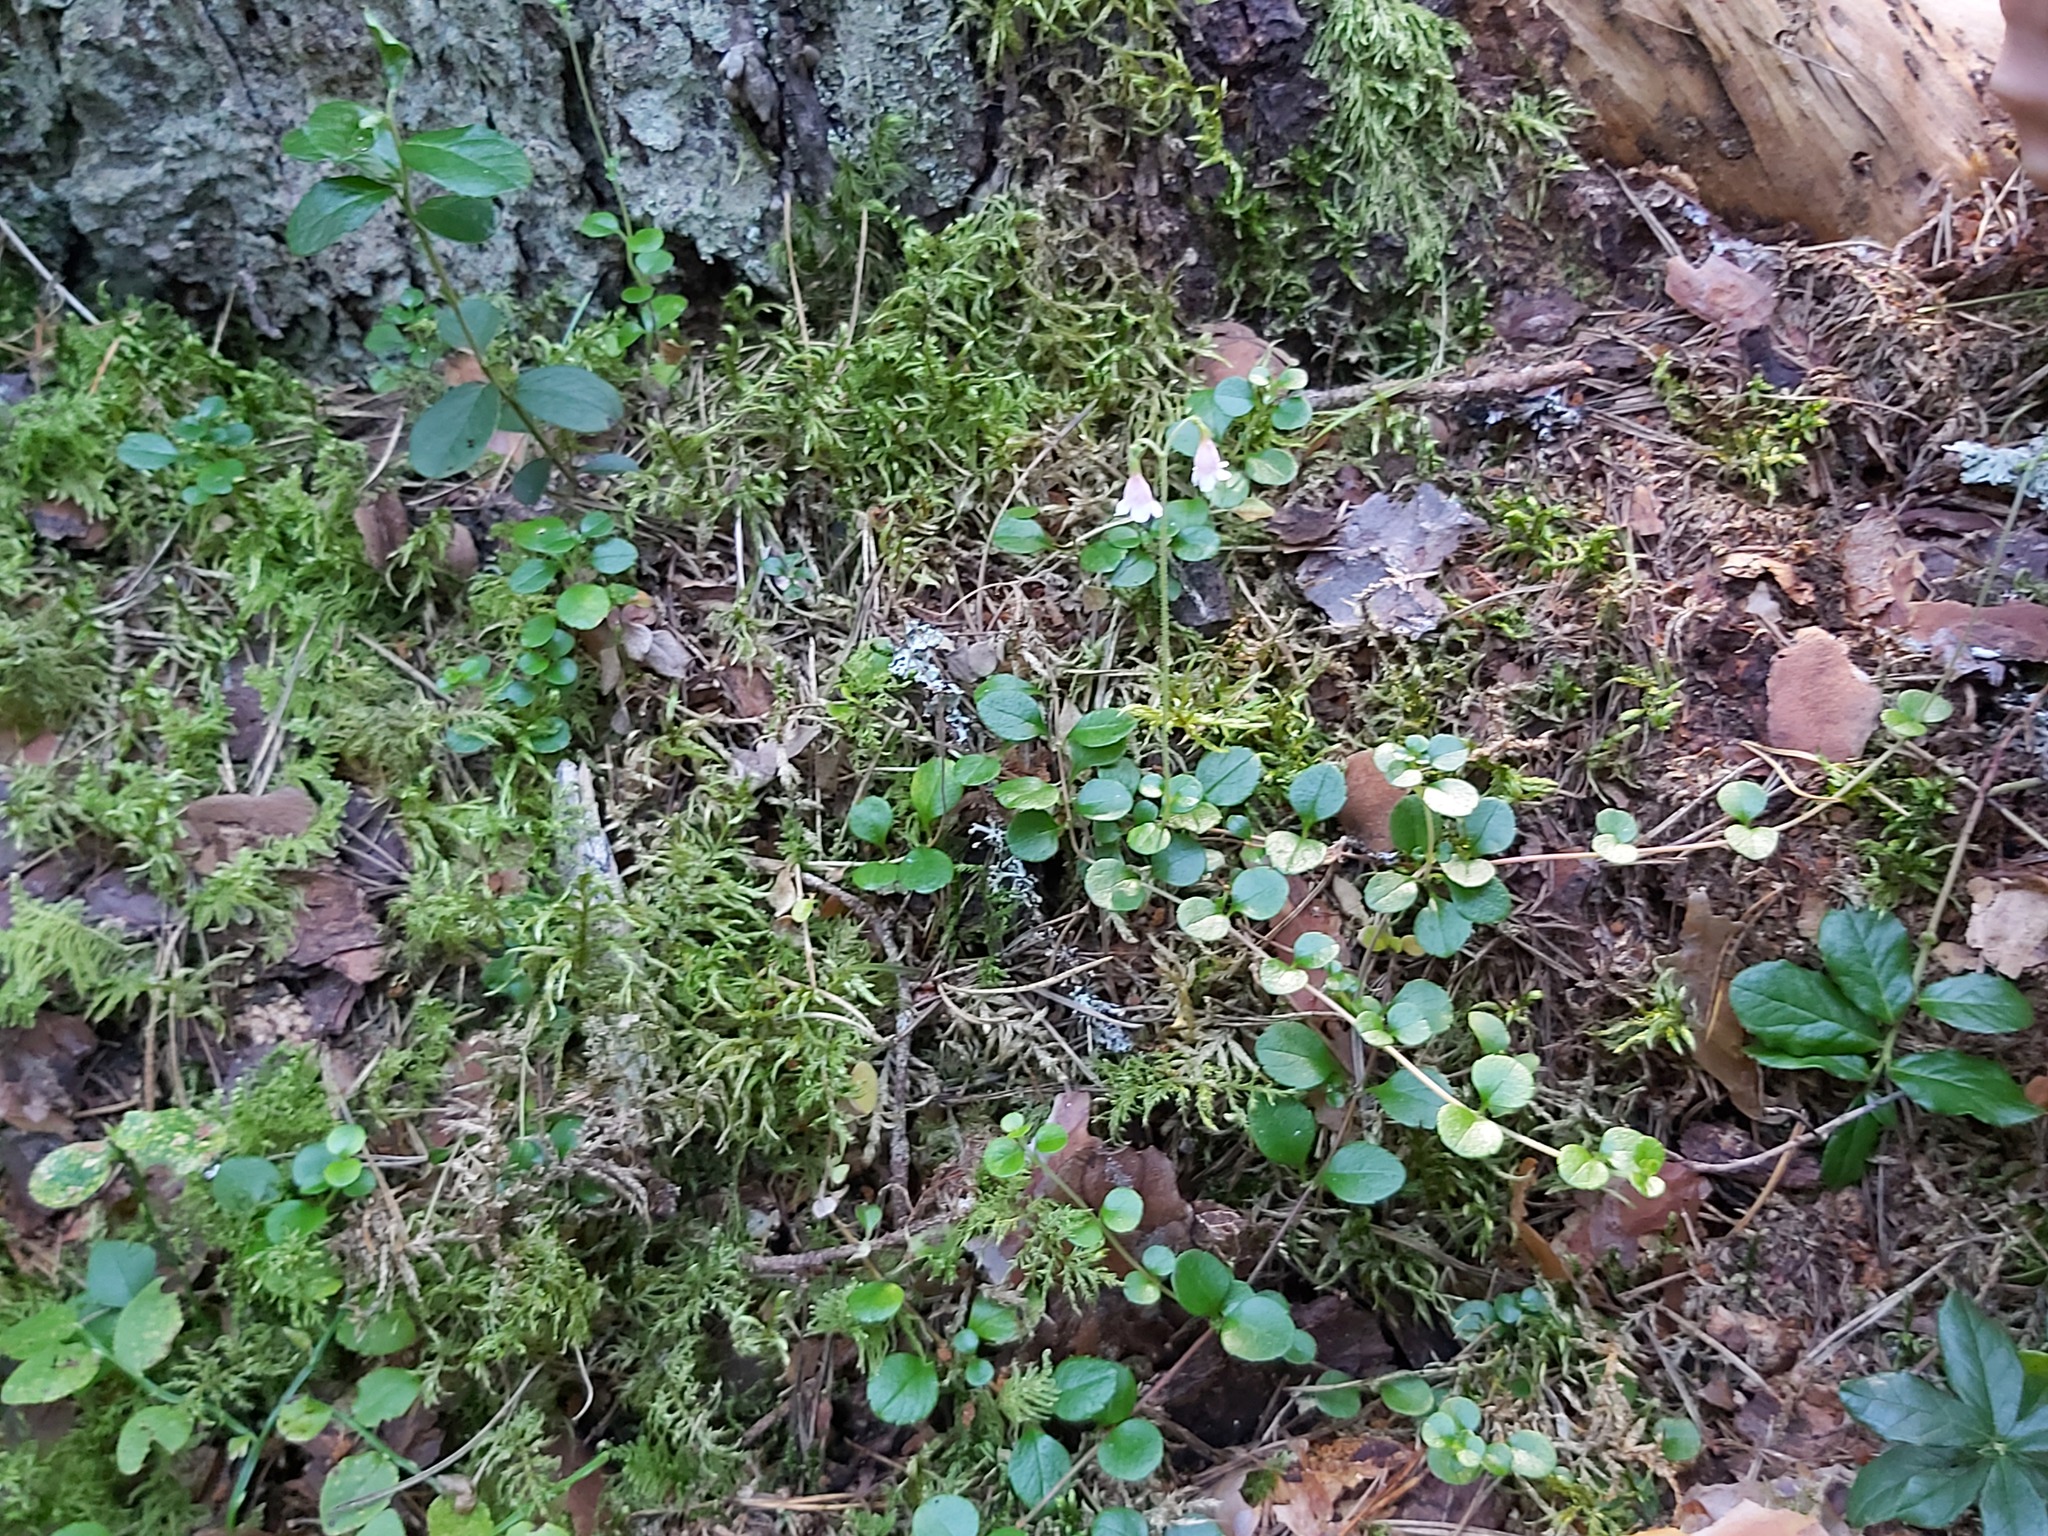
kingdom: Plantae
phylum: Tracheophyta
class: Magnoliopsida
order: Dipsacales
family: Caprifoliaceae
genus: Linnaea
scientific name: Linnaea borealis
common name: Twinflower
